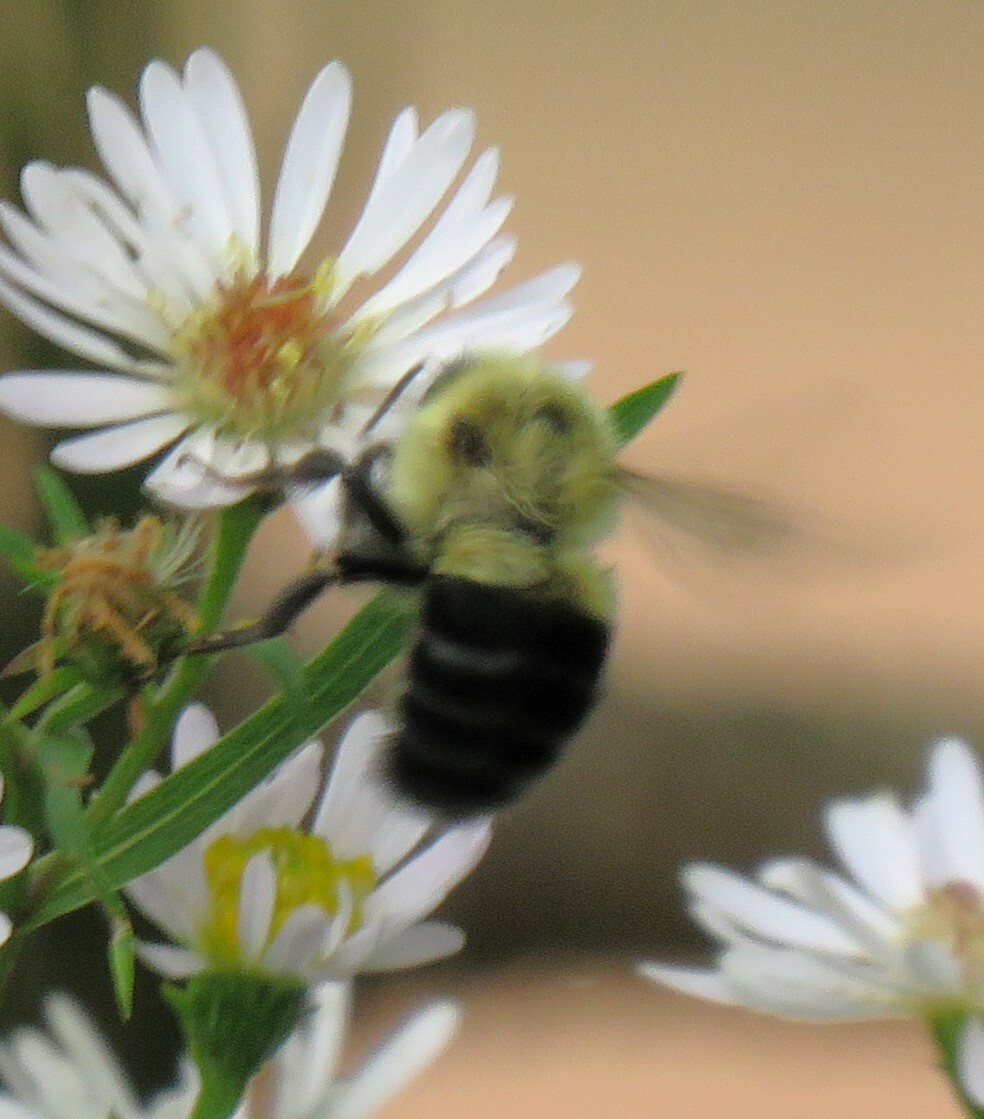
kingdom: Animalia
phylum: Arthropoda
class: Insecta
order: Hymenoptera
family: Apidae
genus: Bombus
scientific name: Bombus impatiens
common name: Common eastern bumble bee
